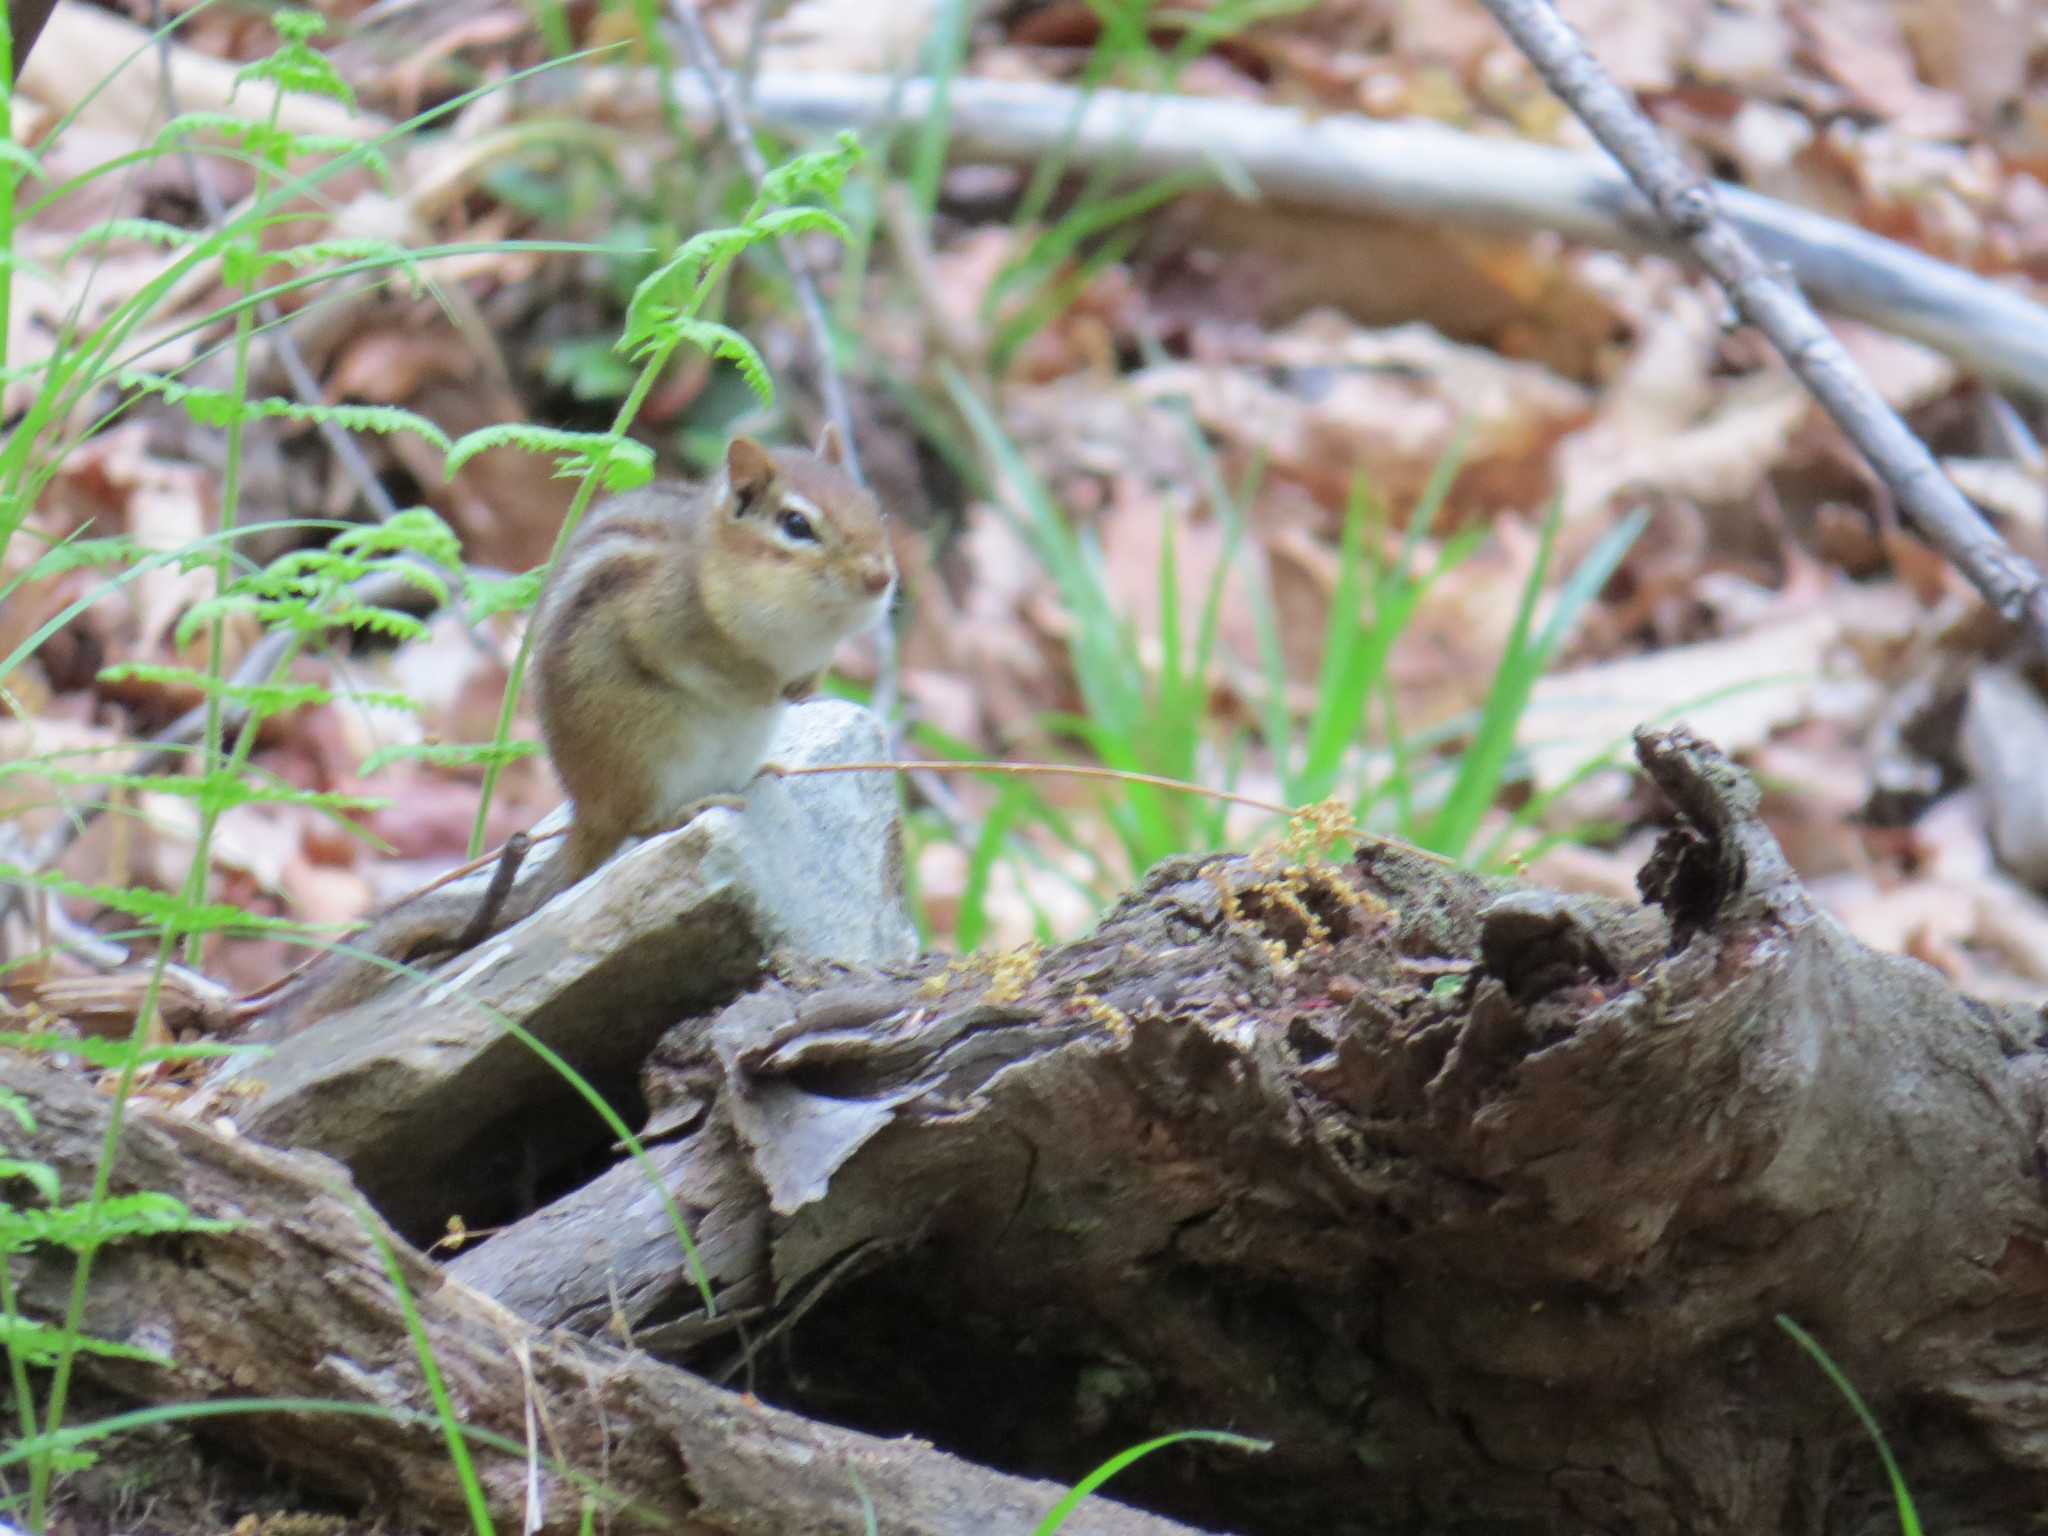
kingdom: Animalia
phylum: Chordata
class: Mammalia
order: Rodentia
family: Sciuridae
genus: Tamias
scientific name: Tamias striatus
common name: Eastern chipmunk
